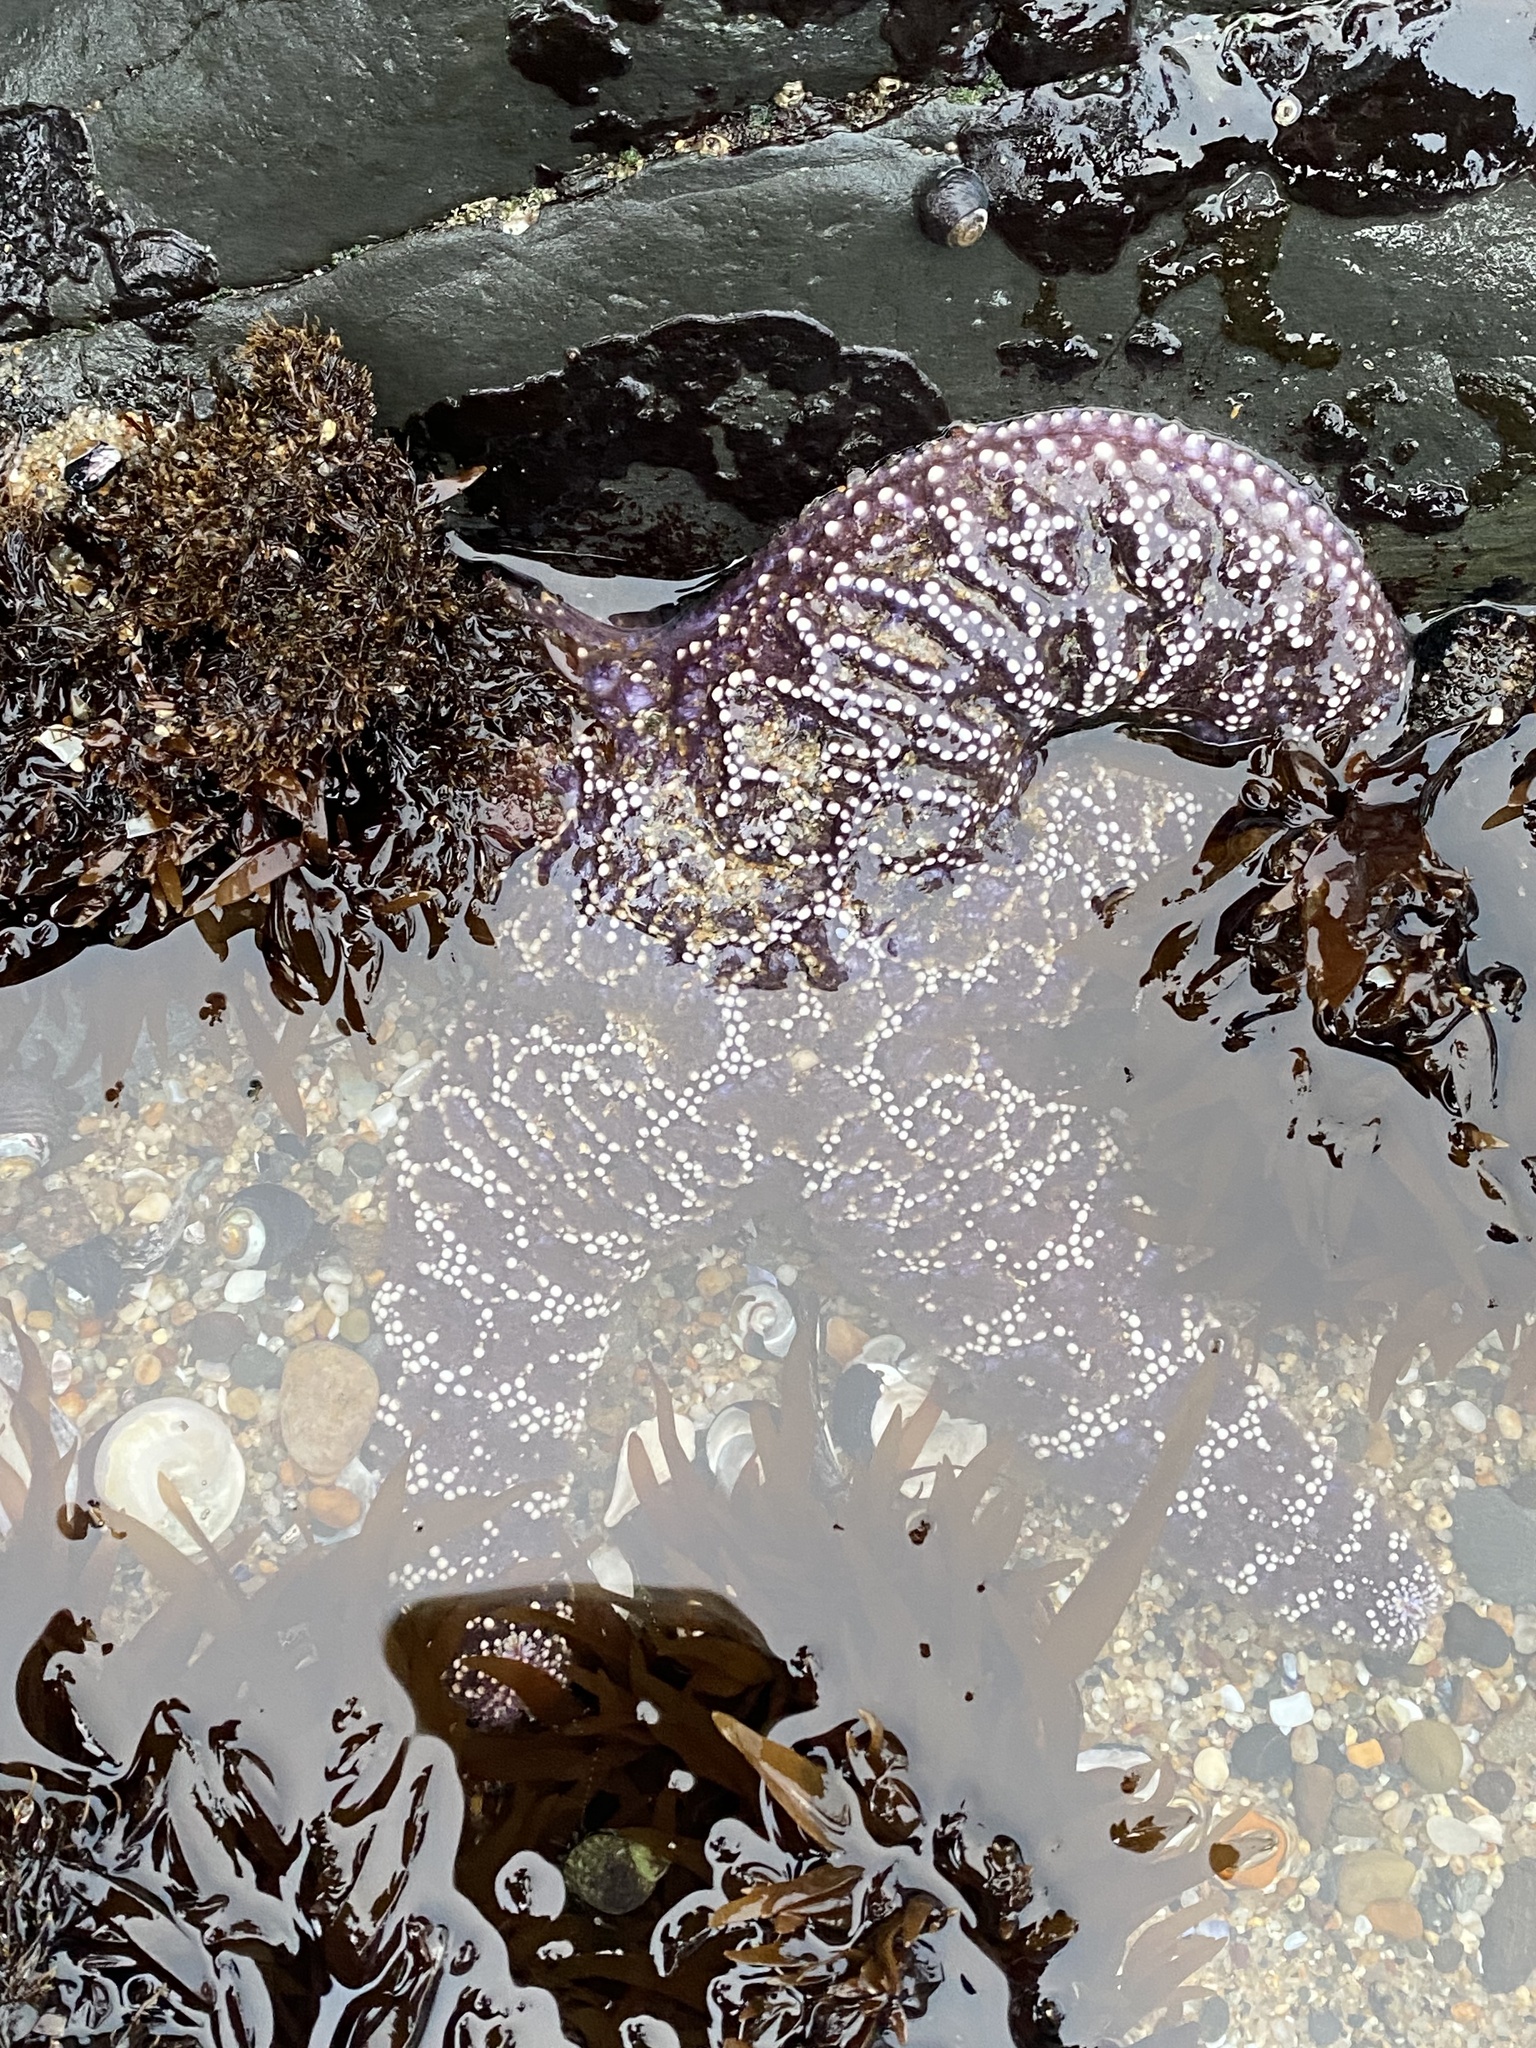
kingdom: Animalia
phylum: Echinodermata
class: Asteroidea
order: Forcipulatida
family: Asteriidae
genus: Pisaster
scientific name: Pisaster ochraceus
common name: Ochre stars
